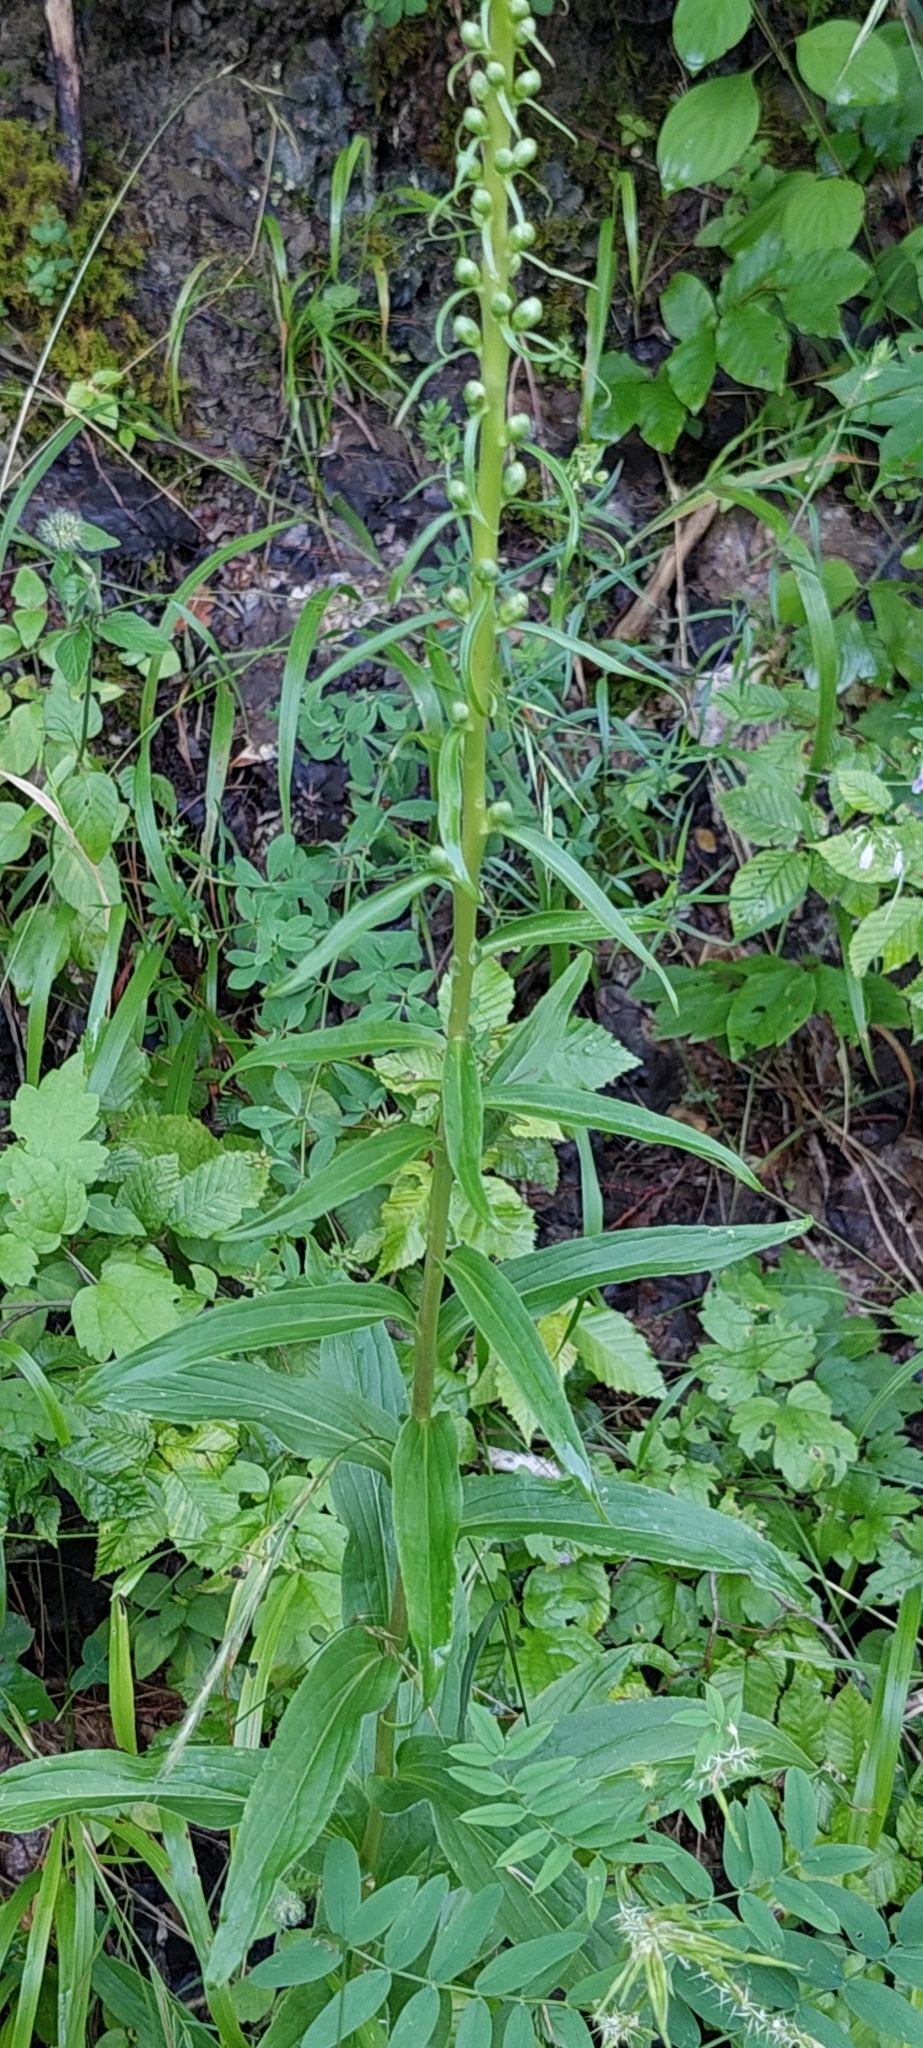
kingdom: Plantae
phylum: Tracheophyta
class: Magnoliopsida
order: Lamiales
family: Plantaginaceae
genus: Digitalis
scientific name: Digitalis ferruginea
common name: Rusty foxglove
